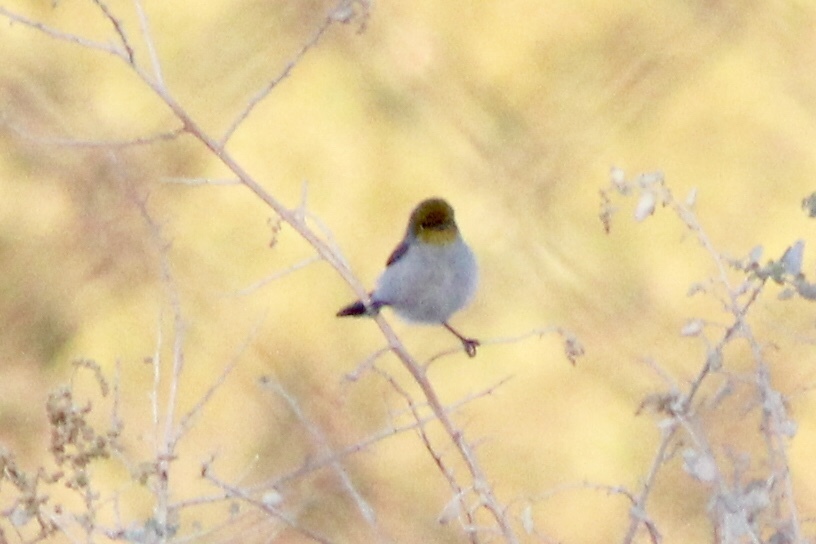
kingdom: Animalia
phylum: Chordata
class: Aves
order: Passeriformes
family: Remizidae
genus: Auriparus
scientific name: Auriparus flaviceps
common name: Verdin
